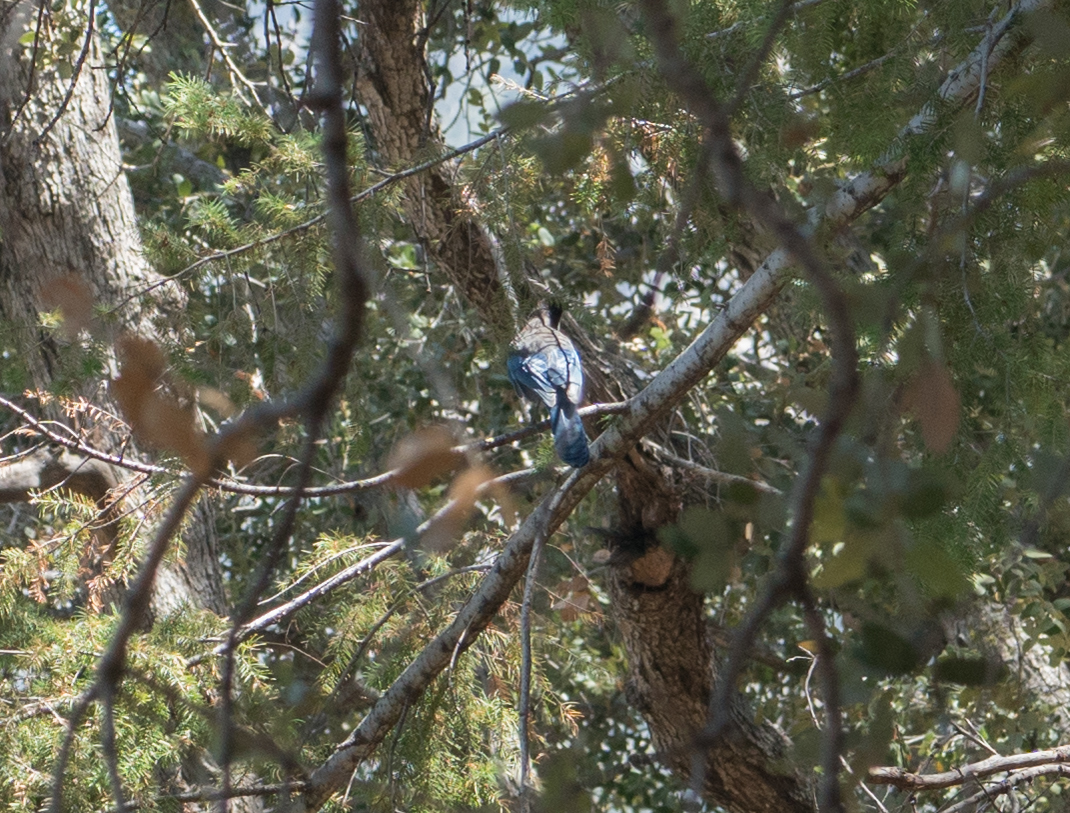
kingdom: Animalia
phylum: Chordata
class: Aves
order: Passeriformes
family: Corvidae
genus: Cyanocitta
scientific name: Cyanocitta stelleri
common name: Steller's jay
